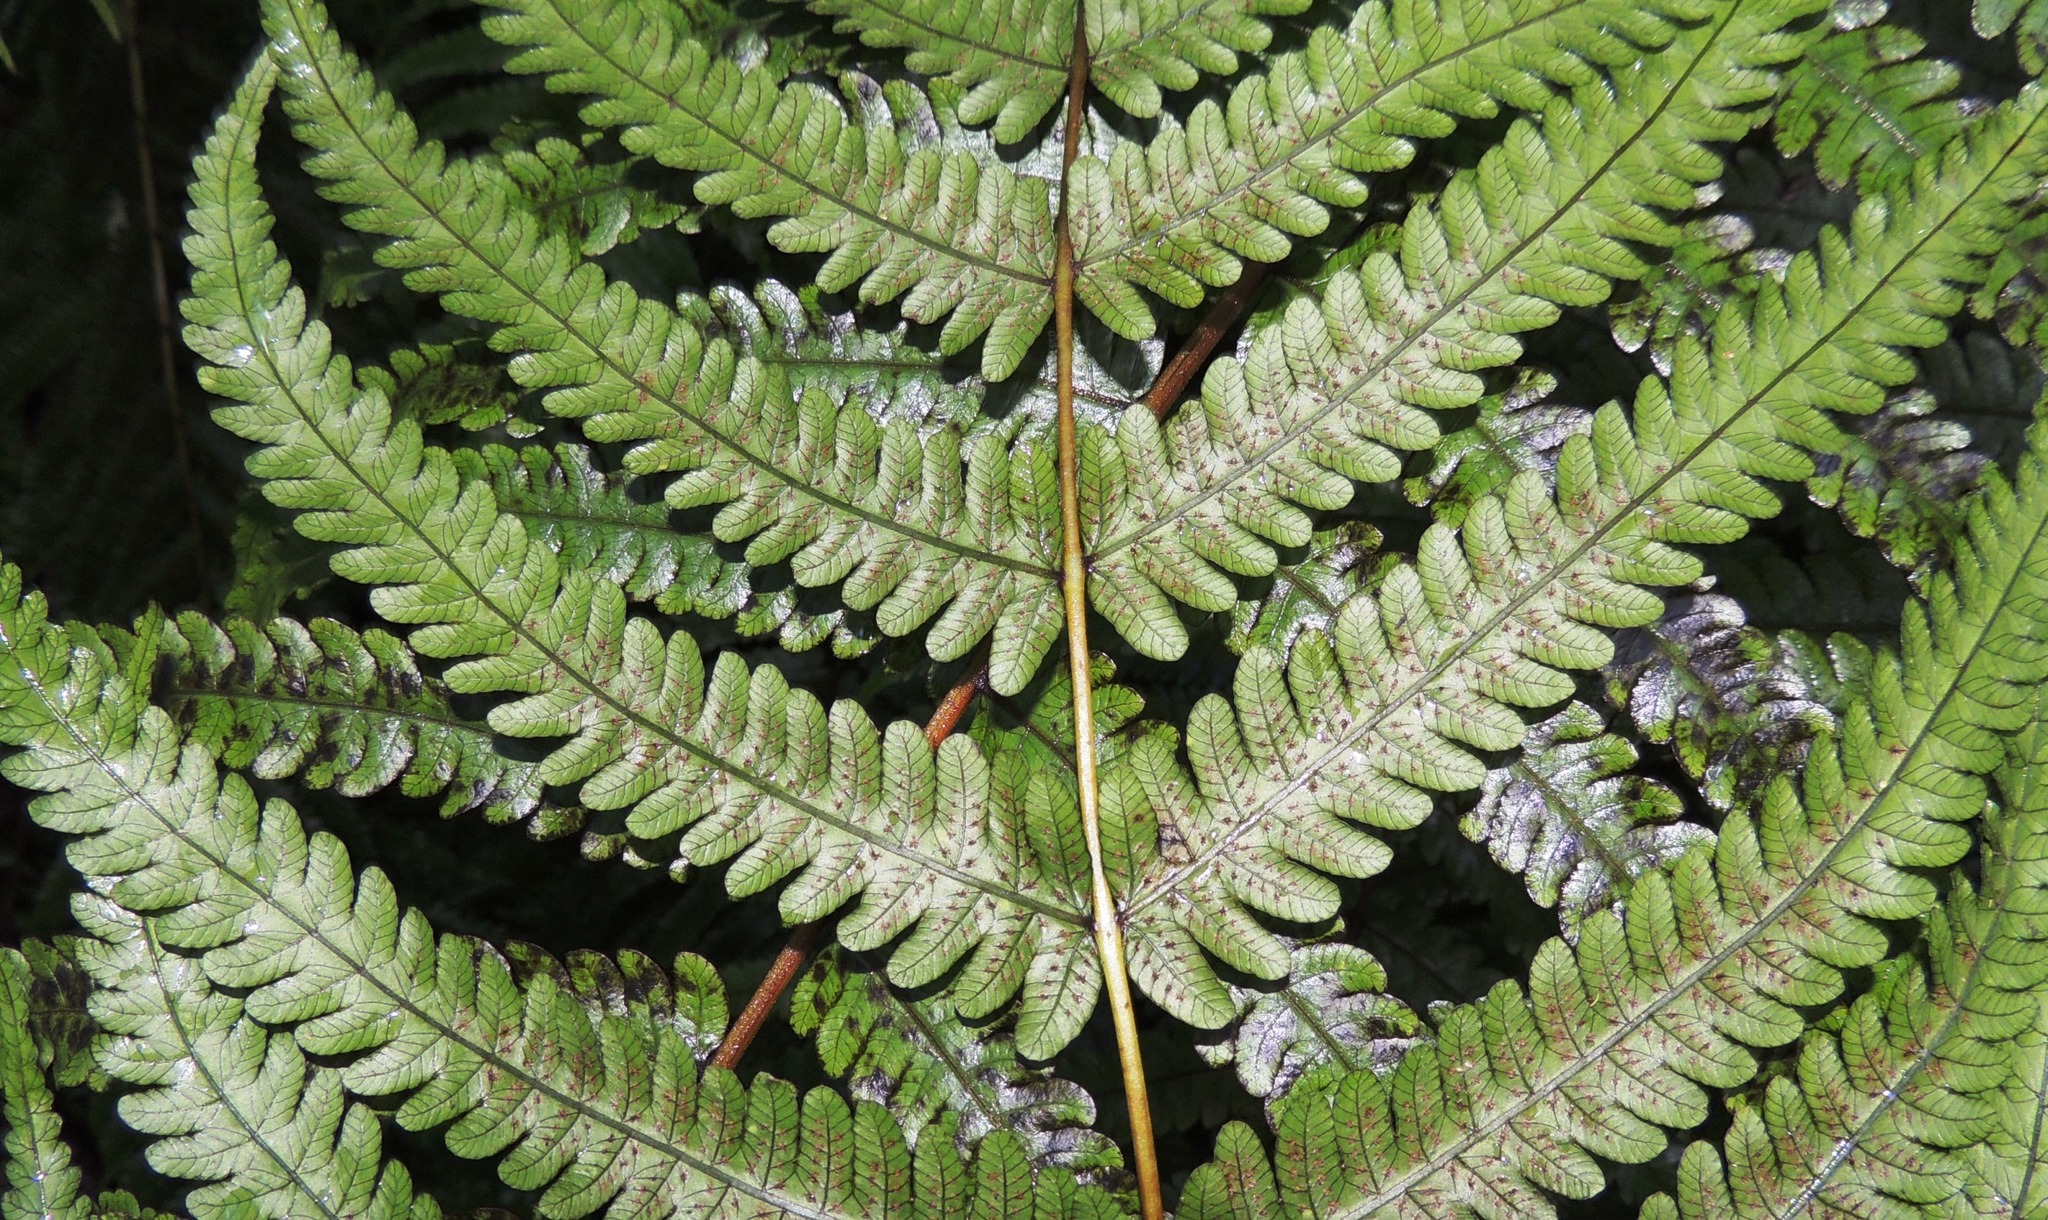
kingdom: Plantae
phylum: Tracheophyta
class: Polypodiopsida
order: Polypodiales
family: Thelypteridaceae
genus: Pakau
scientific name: Pakau pennigera
